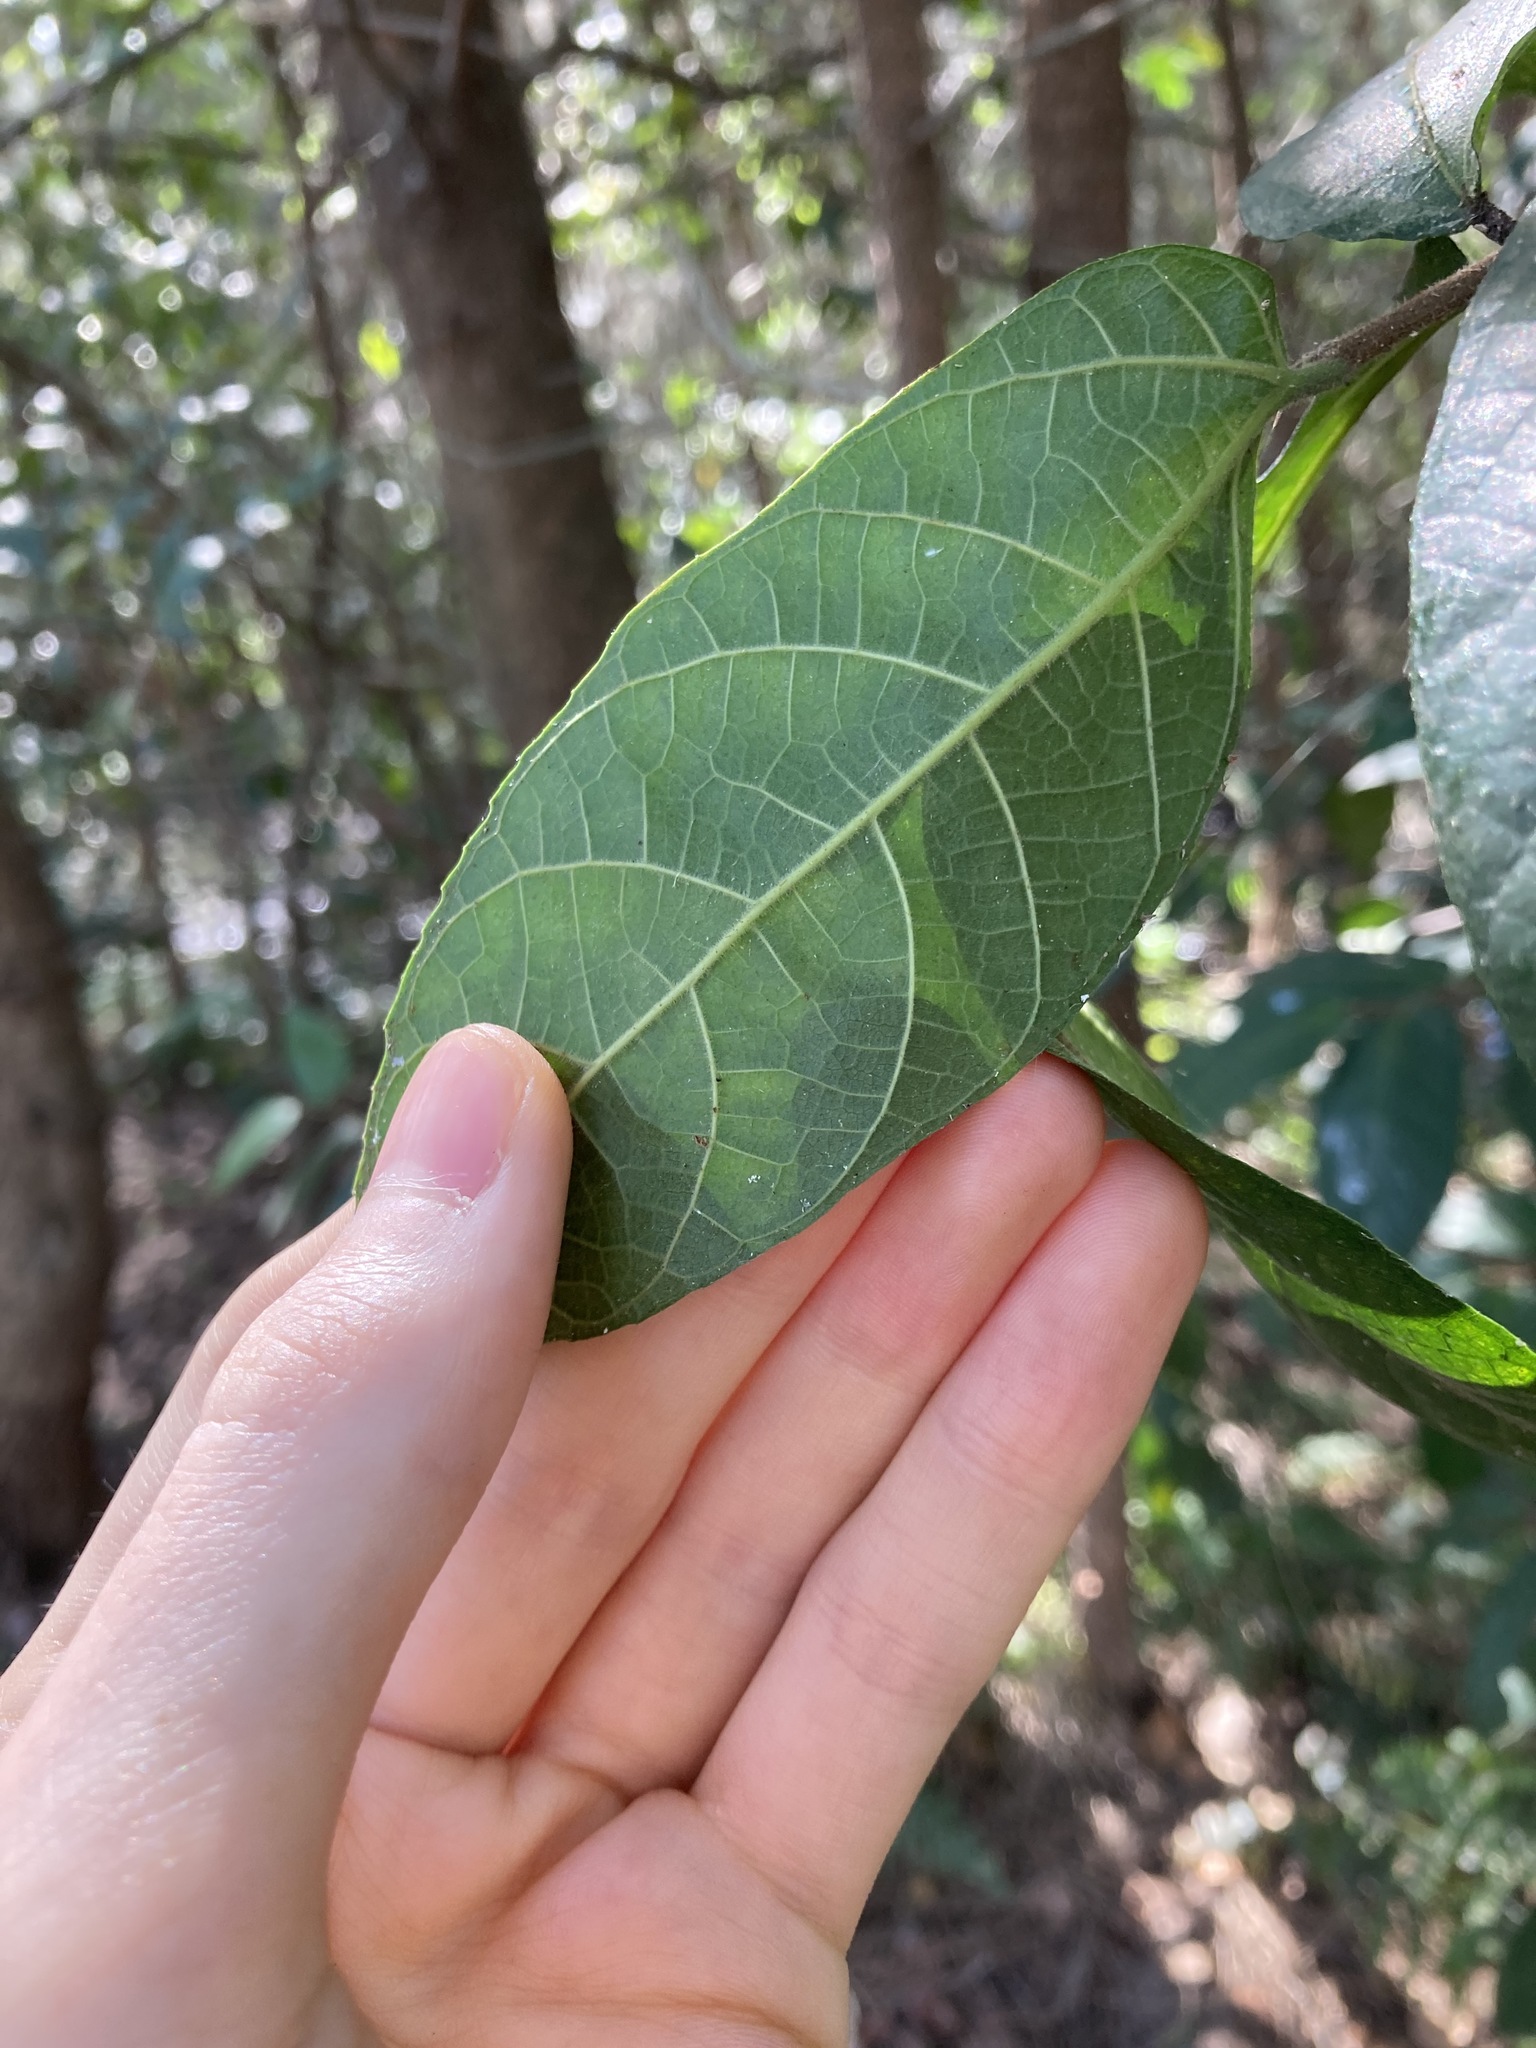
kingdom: Plantae
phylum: Tracheophyta
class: Magnoliopsida
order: Rosales
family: Moraceae
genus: Ficus
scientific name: Ficus coronata
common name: Creek sandpaper fig
